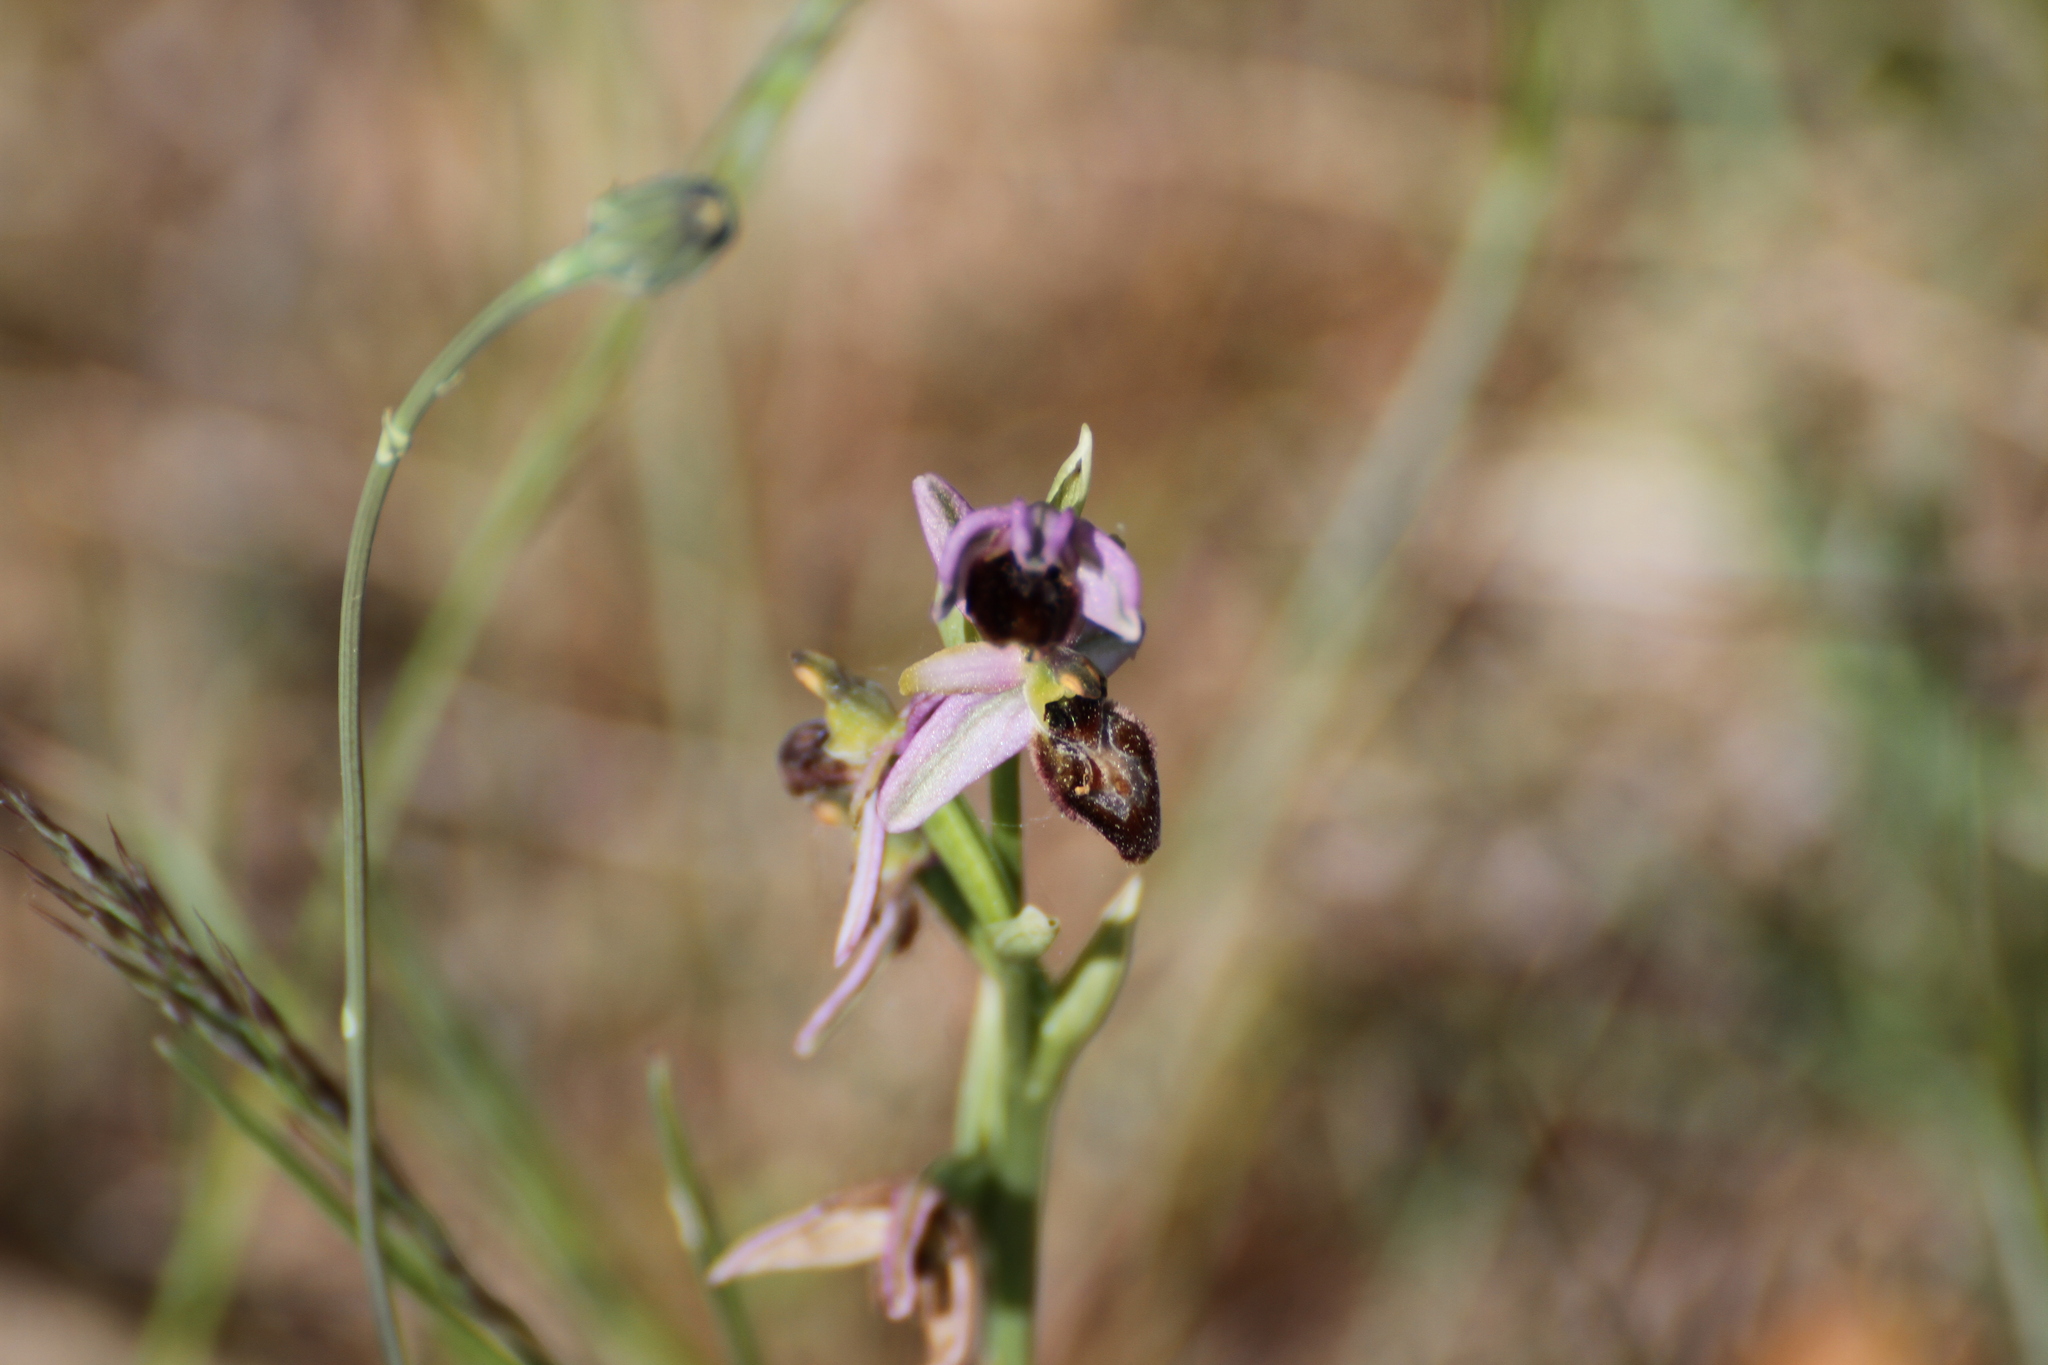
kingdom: Plantae
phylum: Tracheophyta
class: Liliopsida
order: Asparagales
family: Orchidaceae
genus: Ophrys
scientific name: Ophrys arachnitiformis
